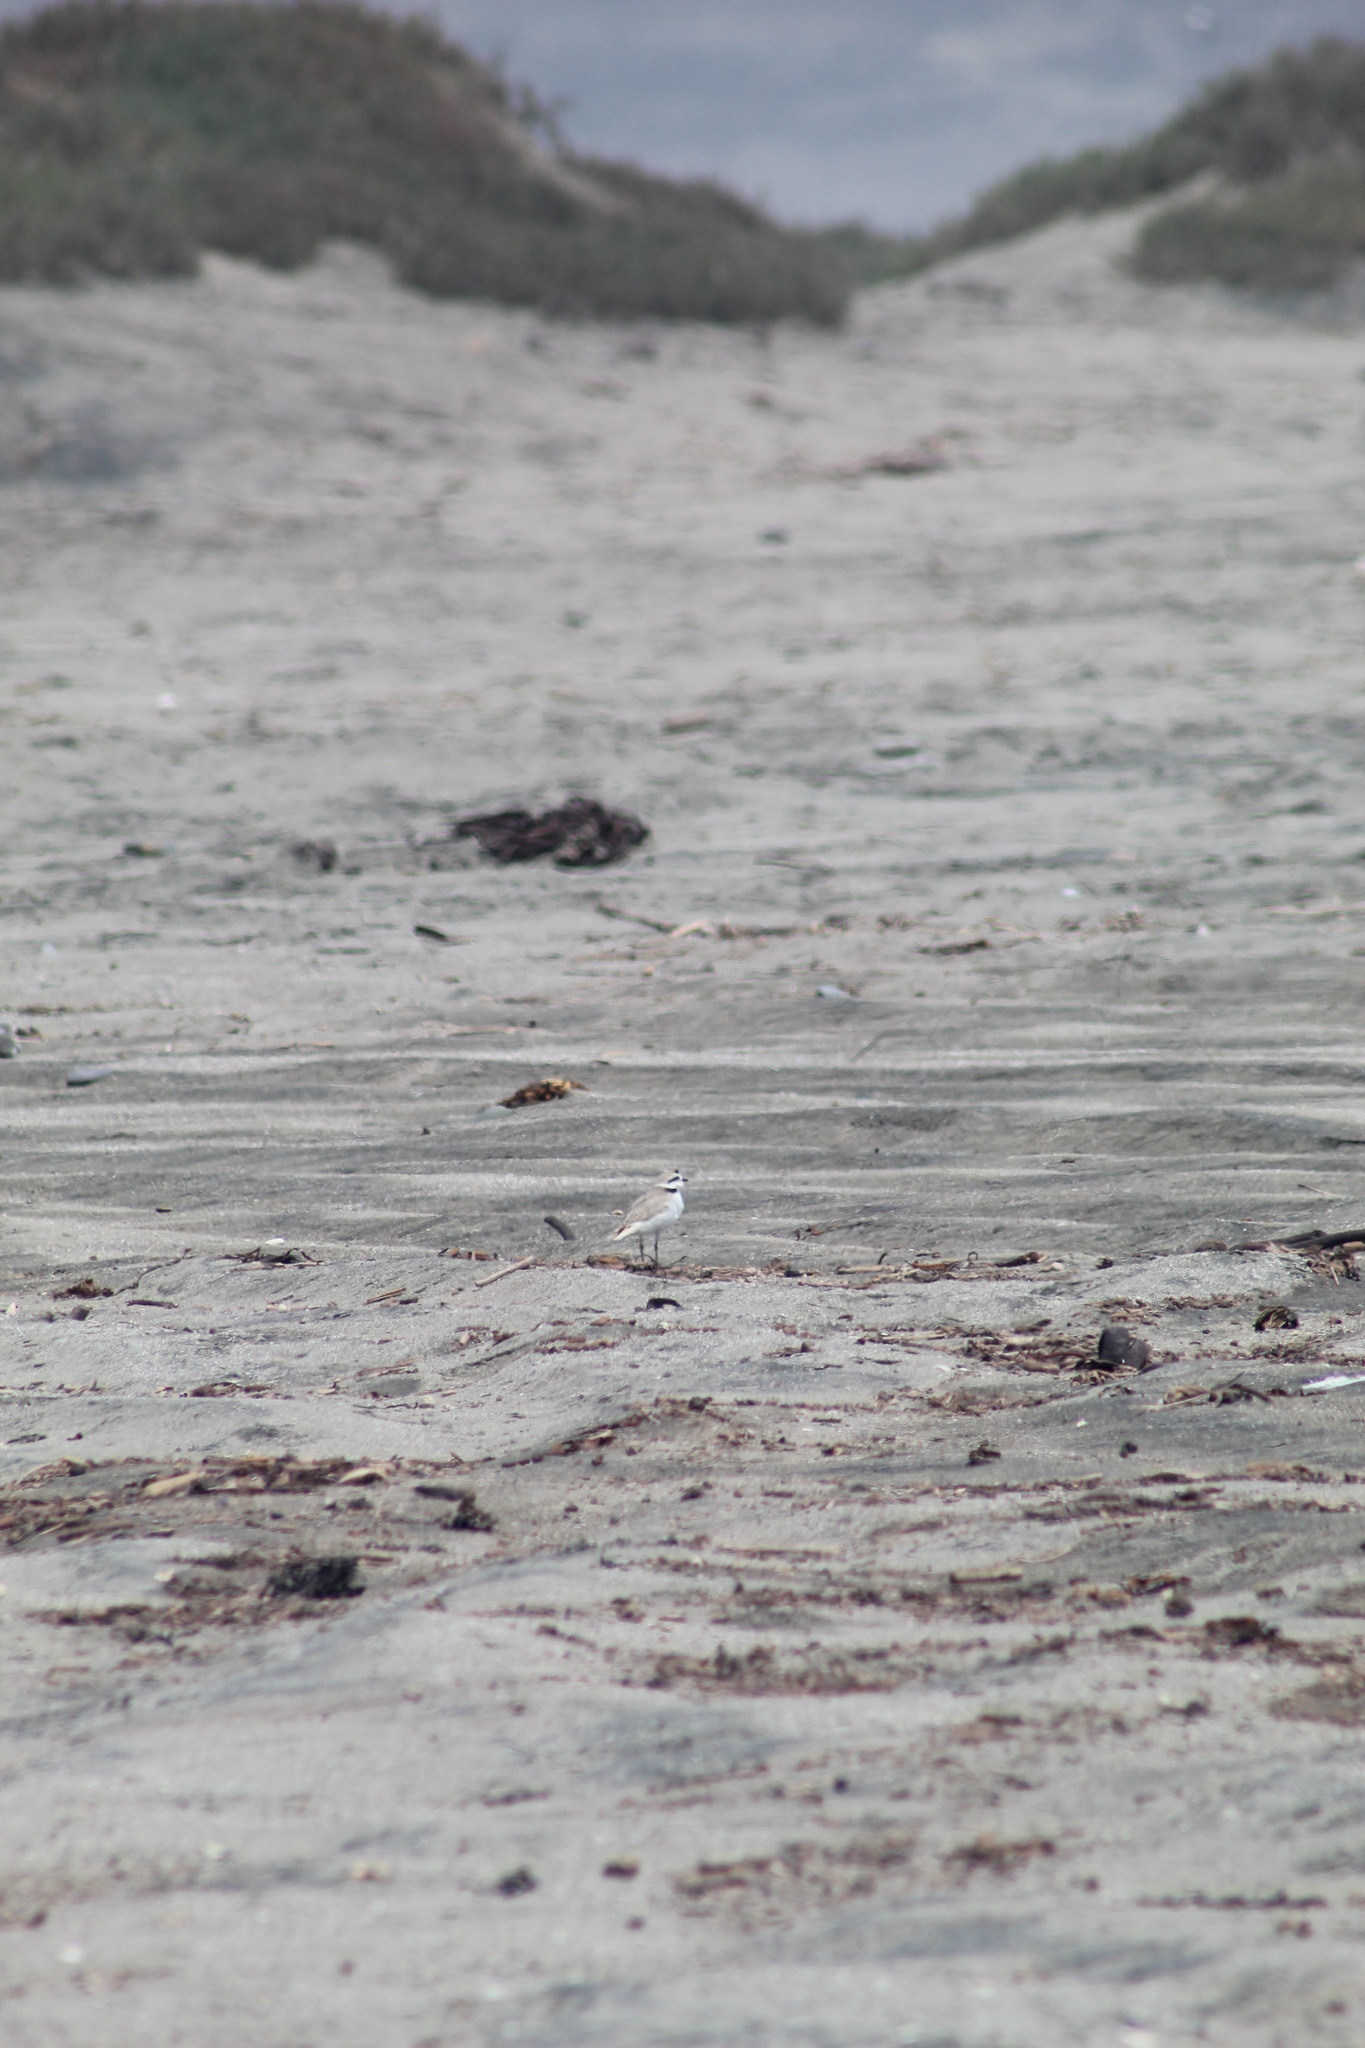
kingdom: Animalia
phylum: Chordata
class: Aves
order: Charadriiformes
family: Charadriidae
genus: Anarhynchus
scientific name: Anarhynchus
